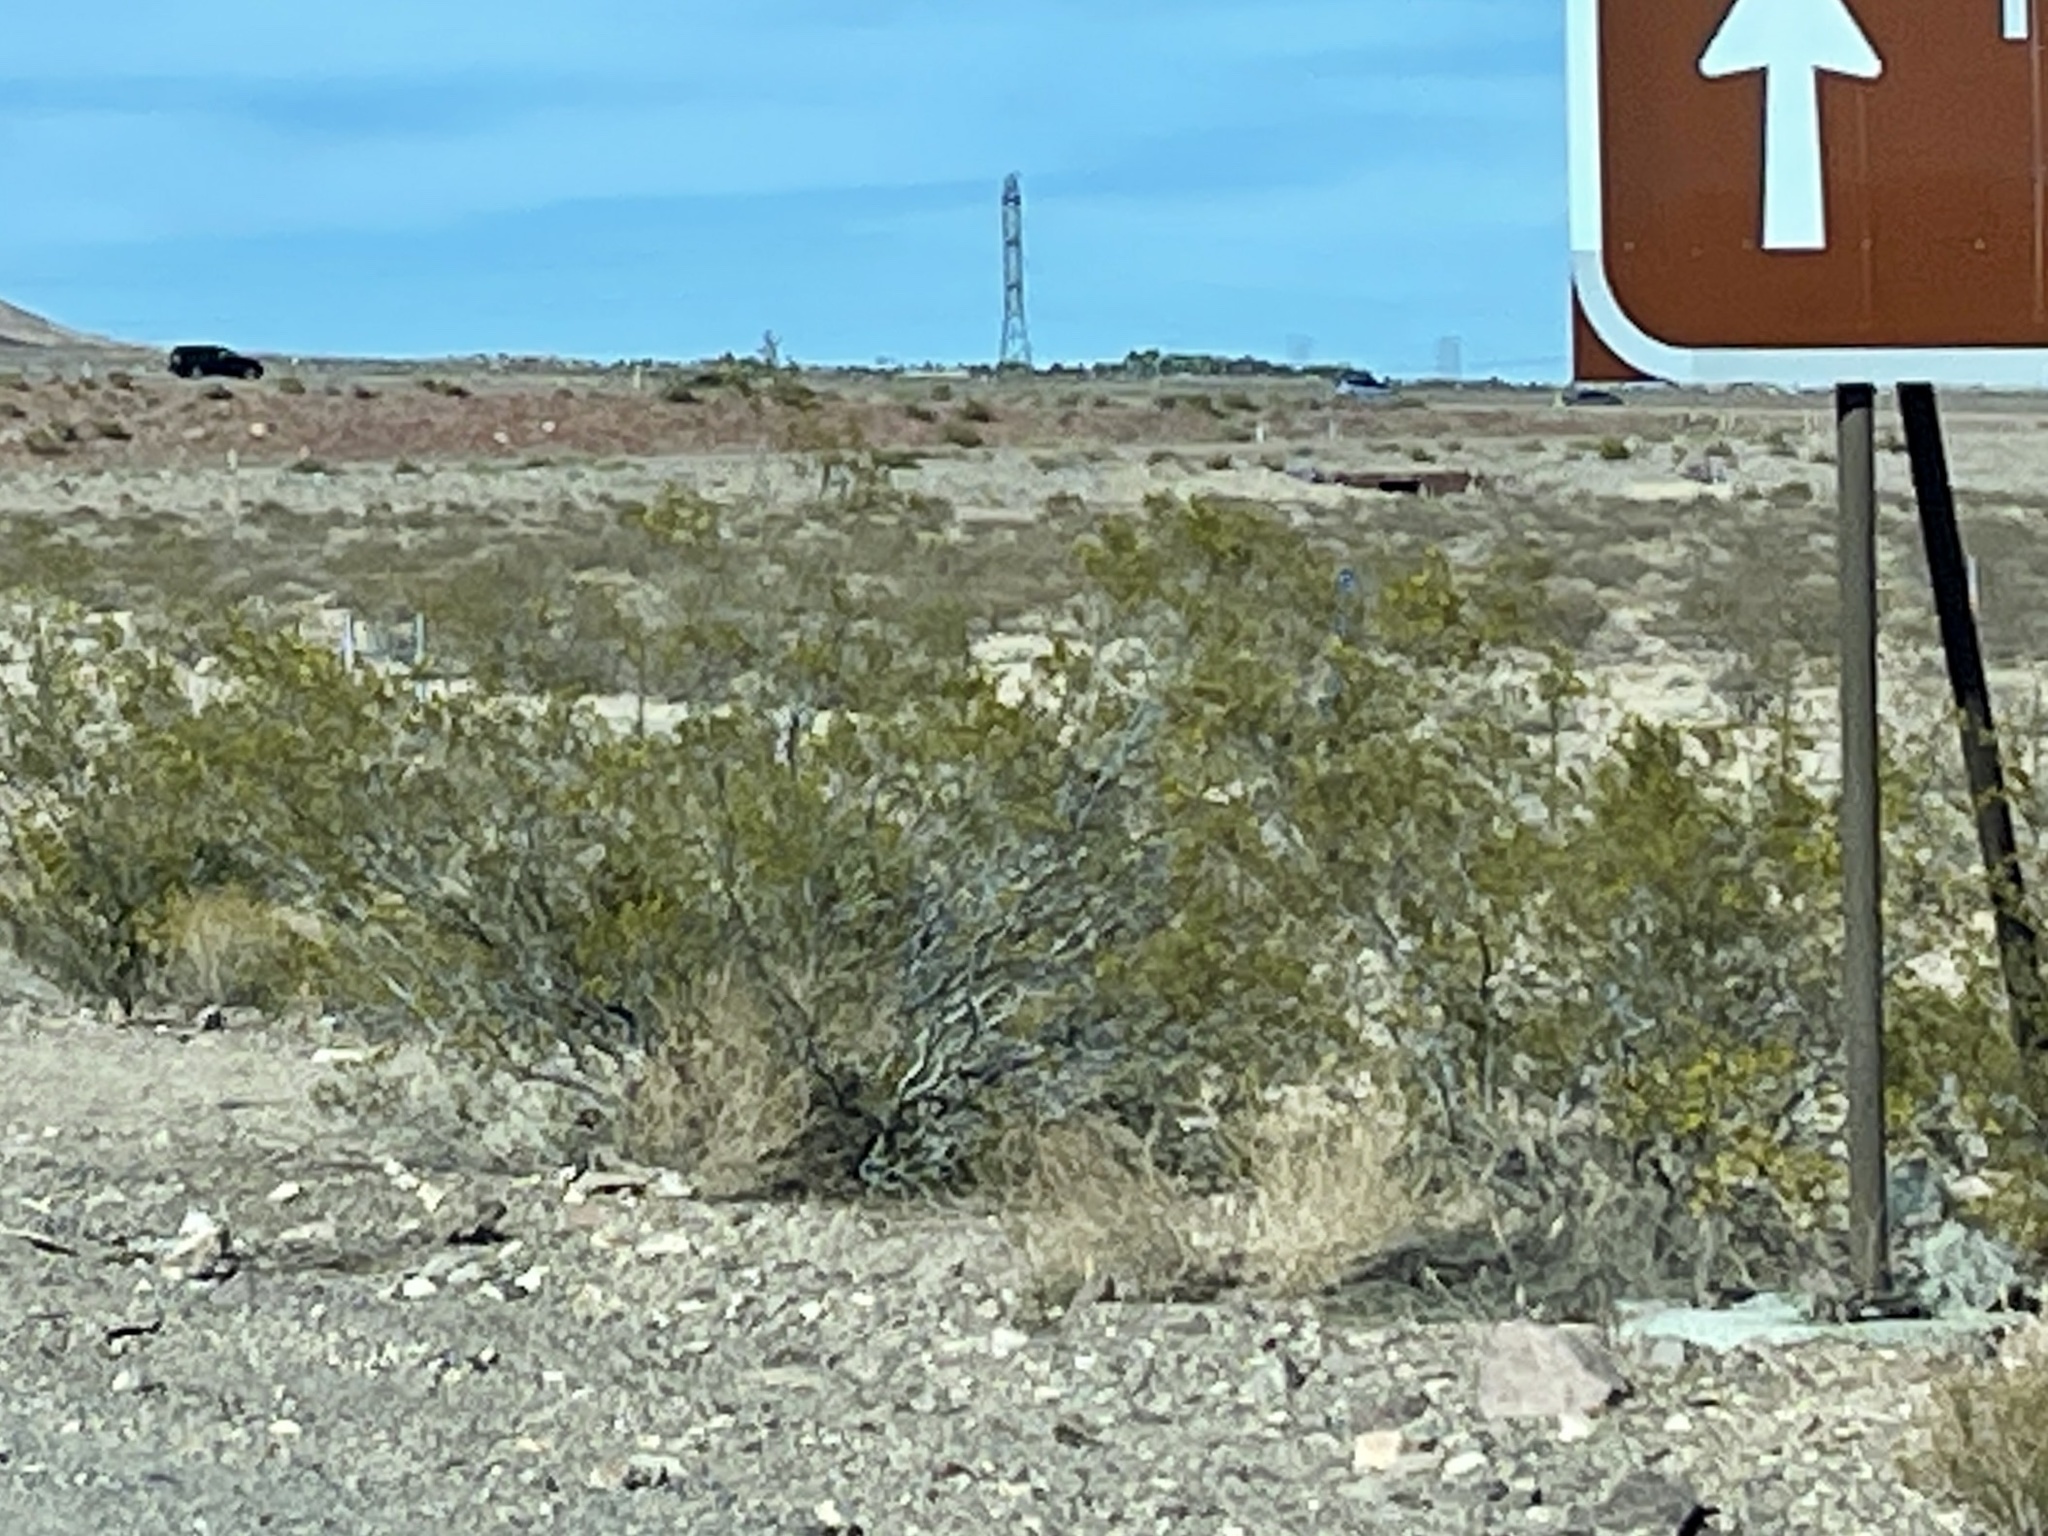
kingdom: Plantae
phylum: Tracheophyta
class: Magnoliopsida
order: Zygophyllales
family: Zygophyllaceae
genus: Larrea
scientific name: Larrea tridentata
